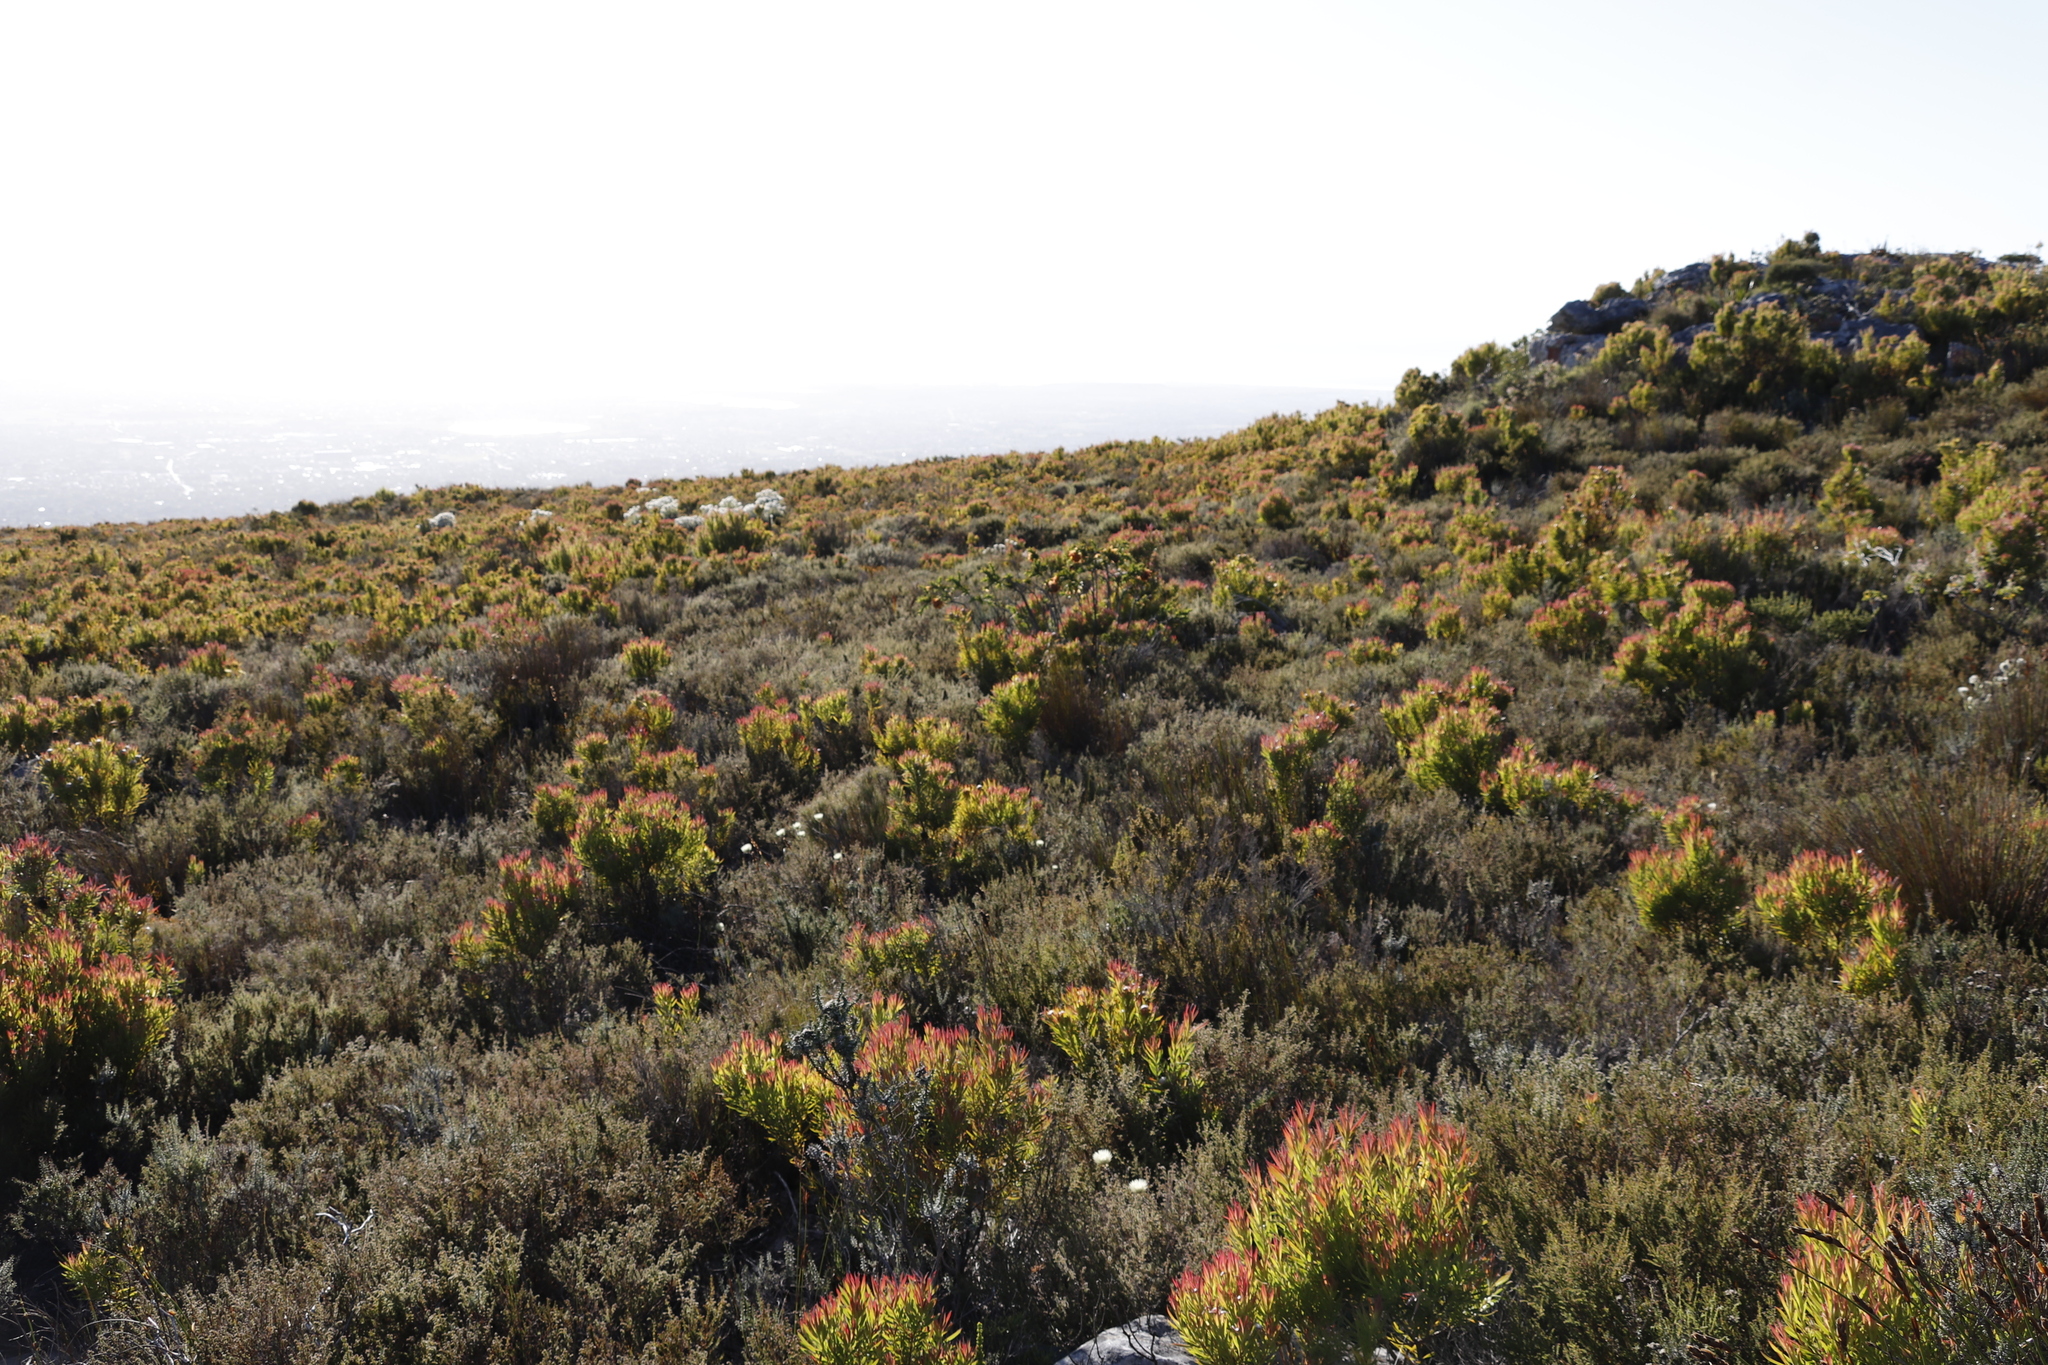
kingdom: Plantae
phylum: Tracheophyta
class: Magnoliopsida
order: Fabales
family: Fabaceae
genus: Liparia
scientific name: Liparia splendens
